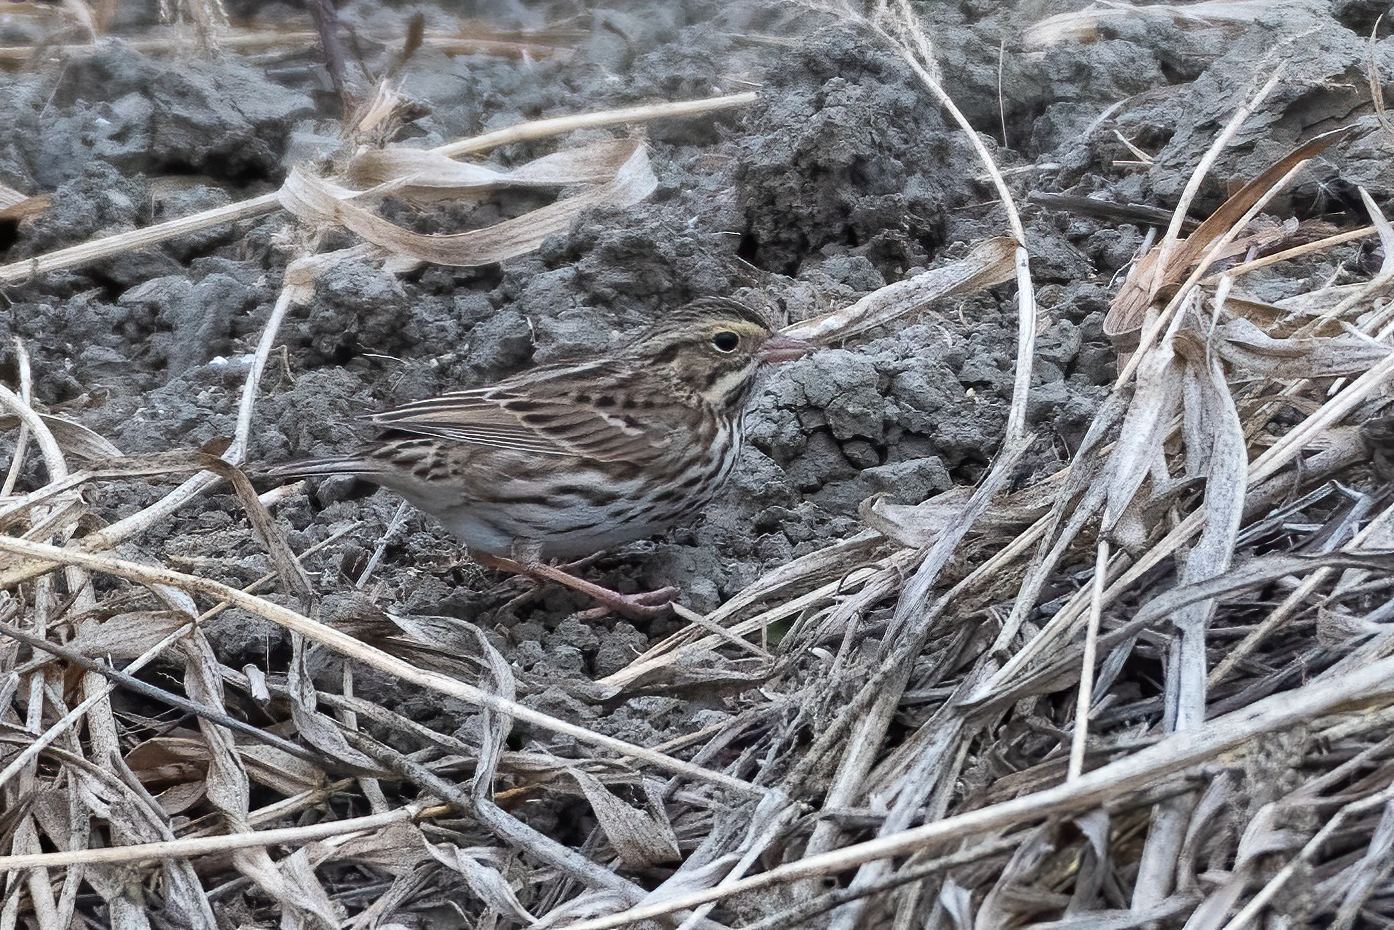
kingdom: Animalia
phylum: Chordata
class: Aves
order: Passeriformes
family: Passerellidae
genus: Passerculus
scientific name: Passerculus sandwichensis
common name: Savannah sparrow
